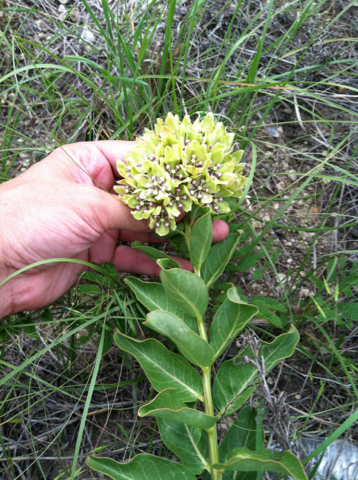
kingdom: Plantae
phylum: Tracheophyta
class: Magnoliopsida
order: Gentianales
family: Apocynaceae
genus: Asclepias
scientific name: Asclepias viridis
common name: Antelope-horns
